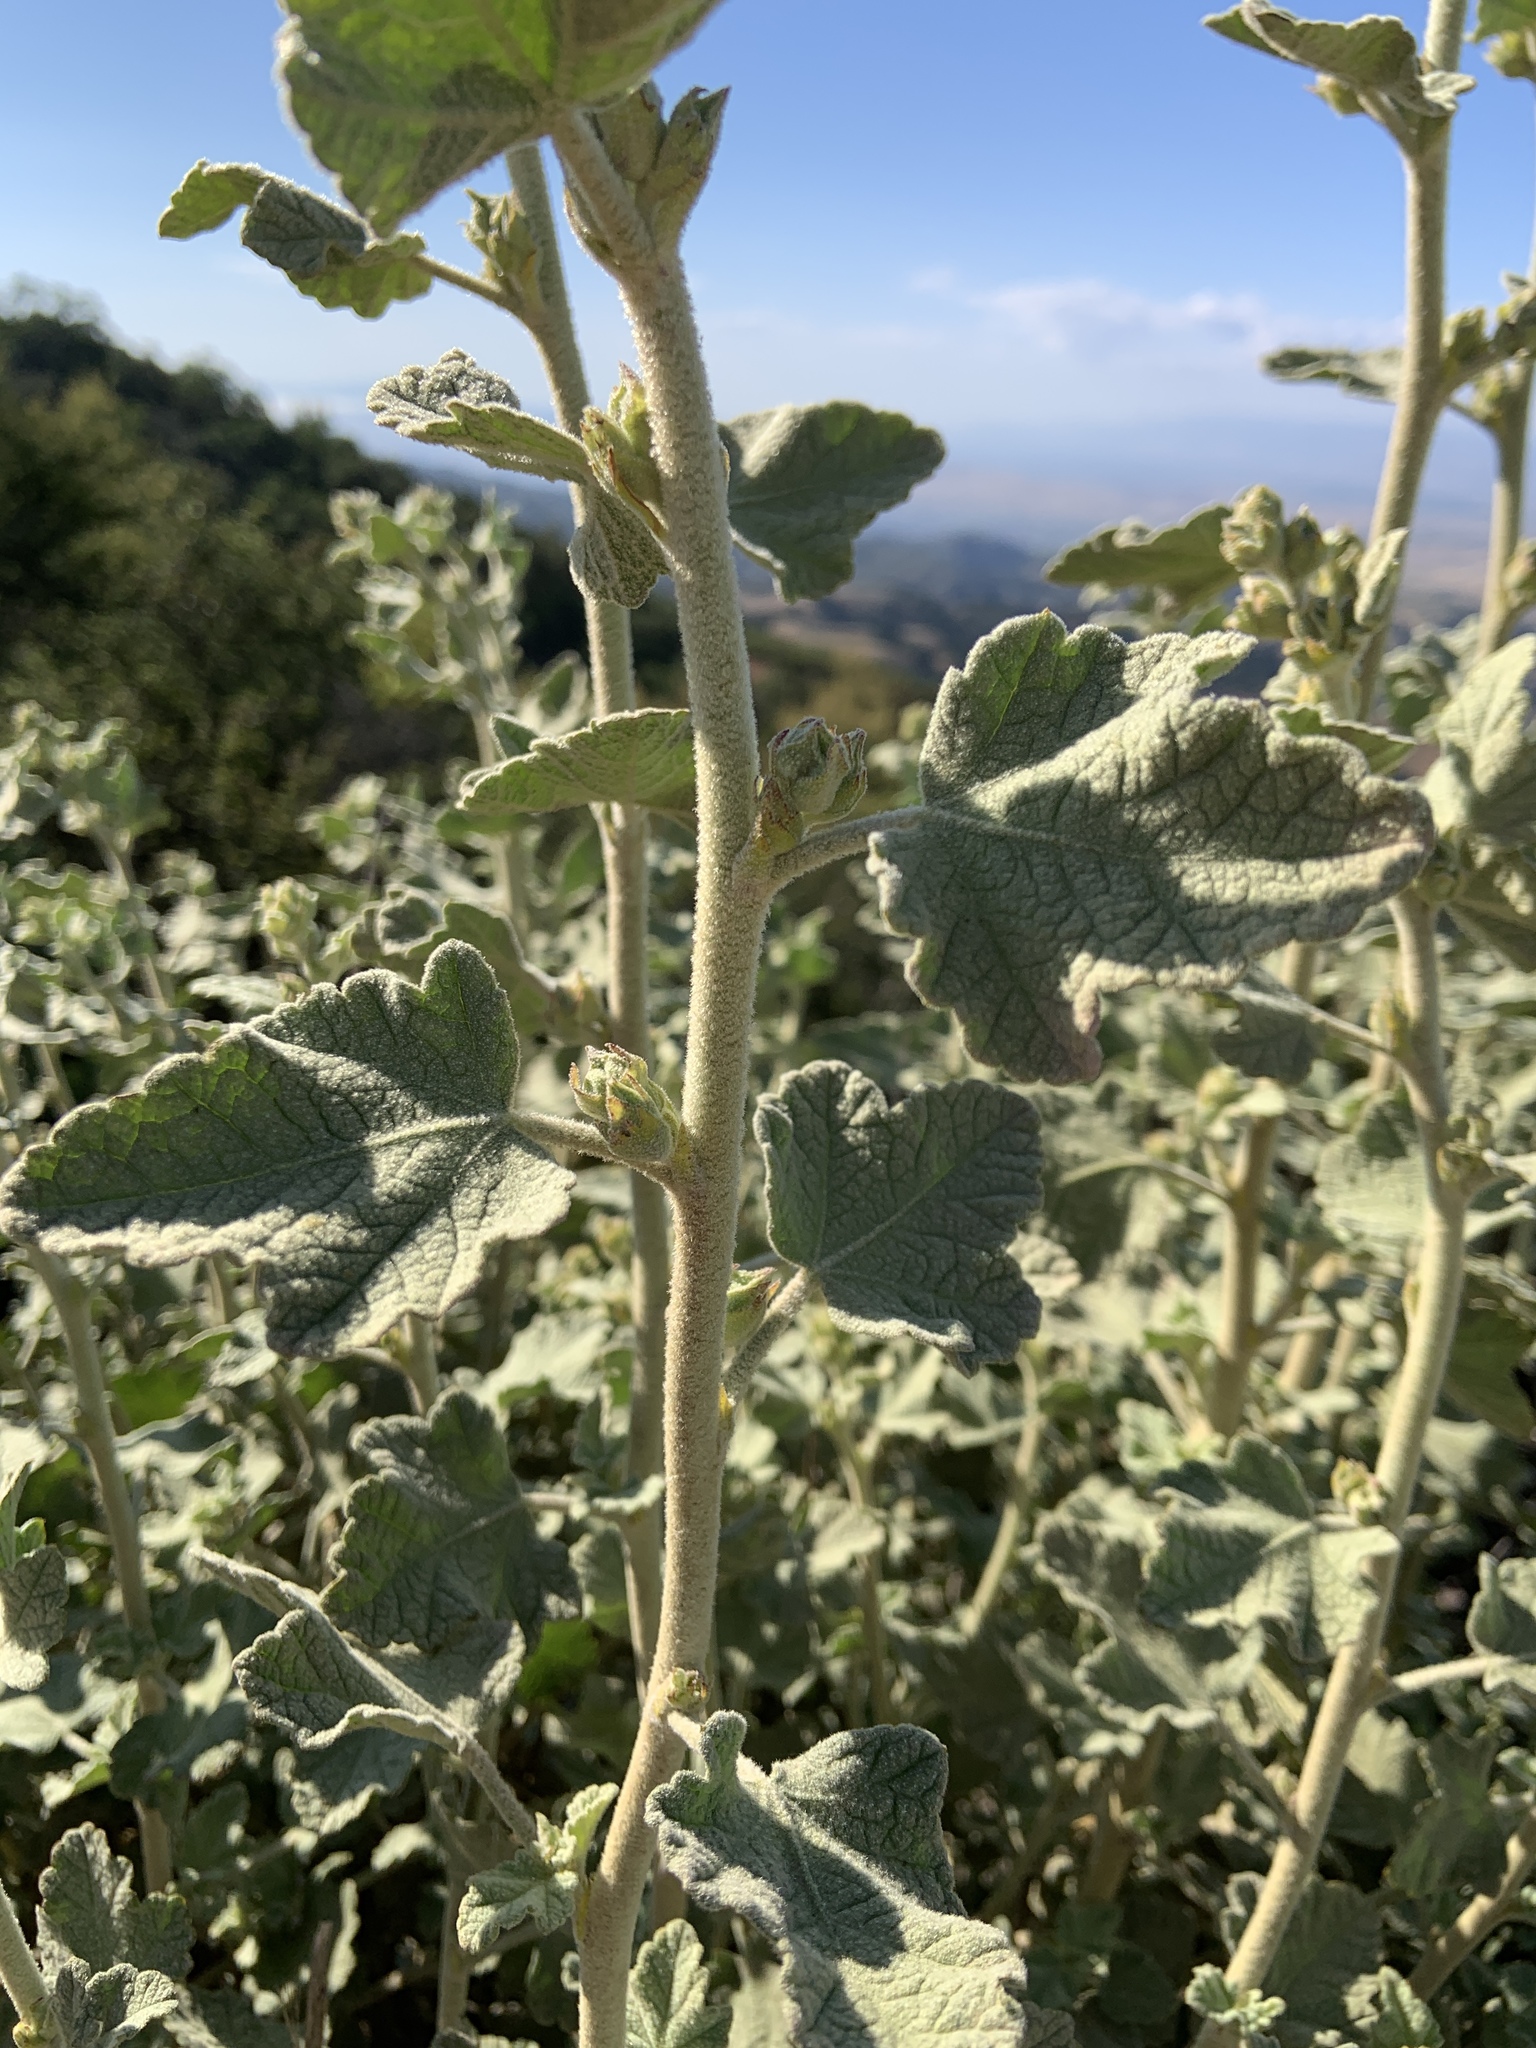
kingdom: Plantae
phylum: Tracheophyta
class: Magnoliopsida
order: Malvales
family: Malvaceae
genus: Malacothamnus
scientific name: Malacothamnus aboriginum
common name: Indian valley bush-mallow
